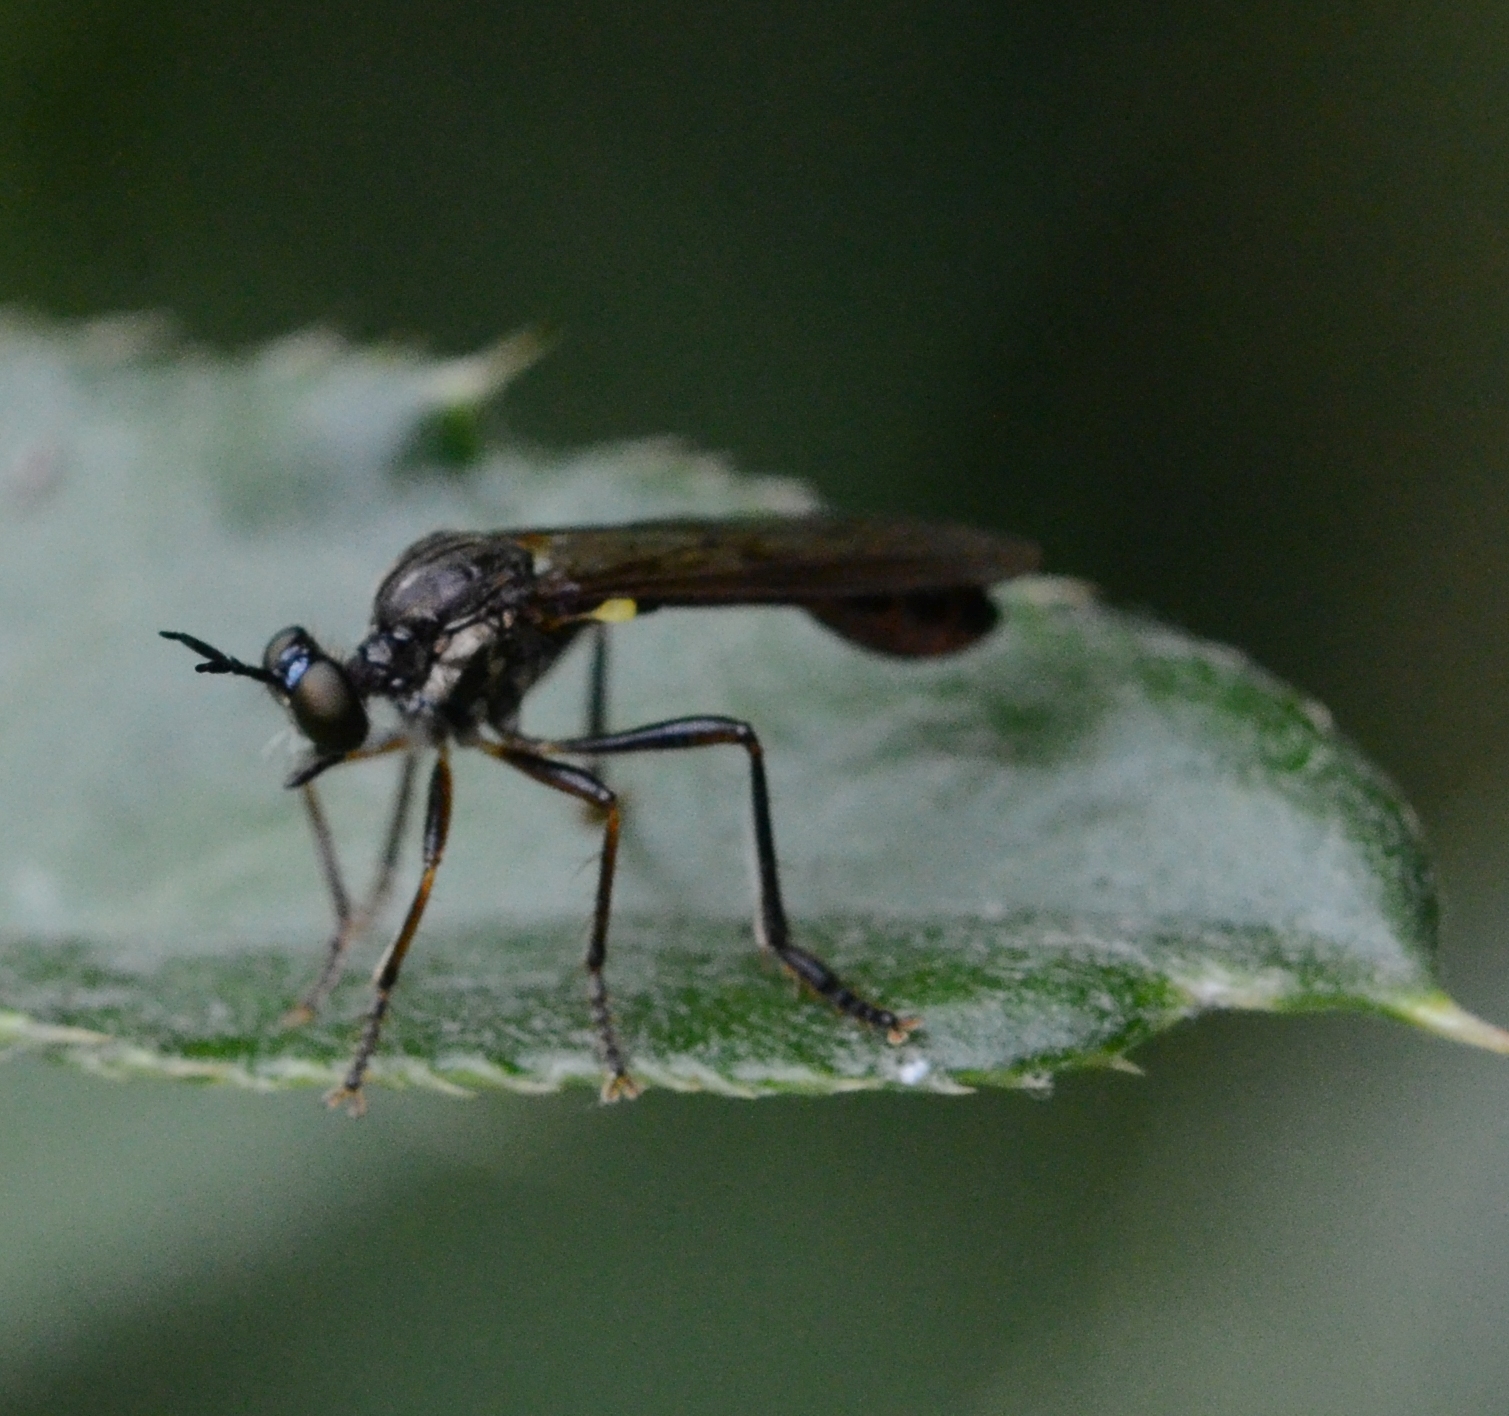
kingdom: Animalia
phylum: Arthropoda
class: Insecta
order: Diptera
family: Asilidae
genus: Dioctria
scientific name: Dioctria hyalipennis
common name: Stripe-legged robberfly
